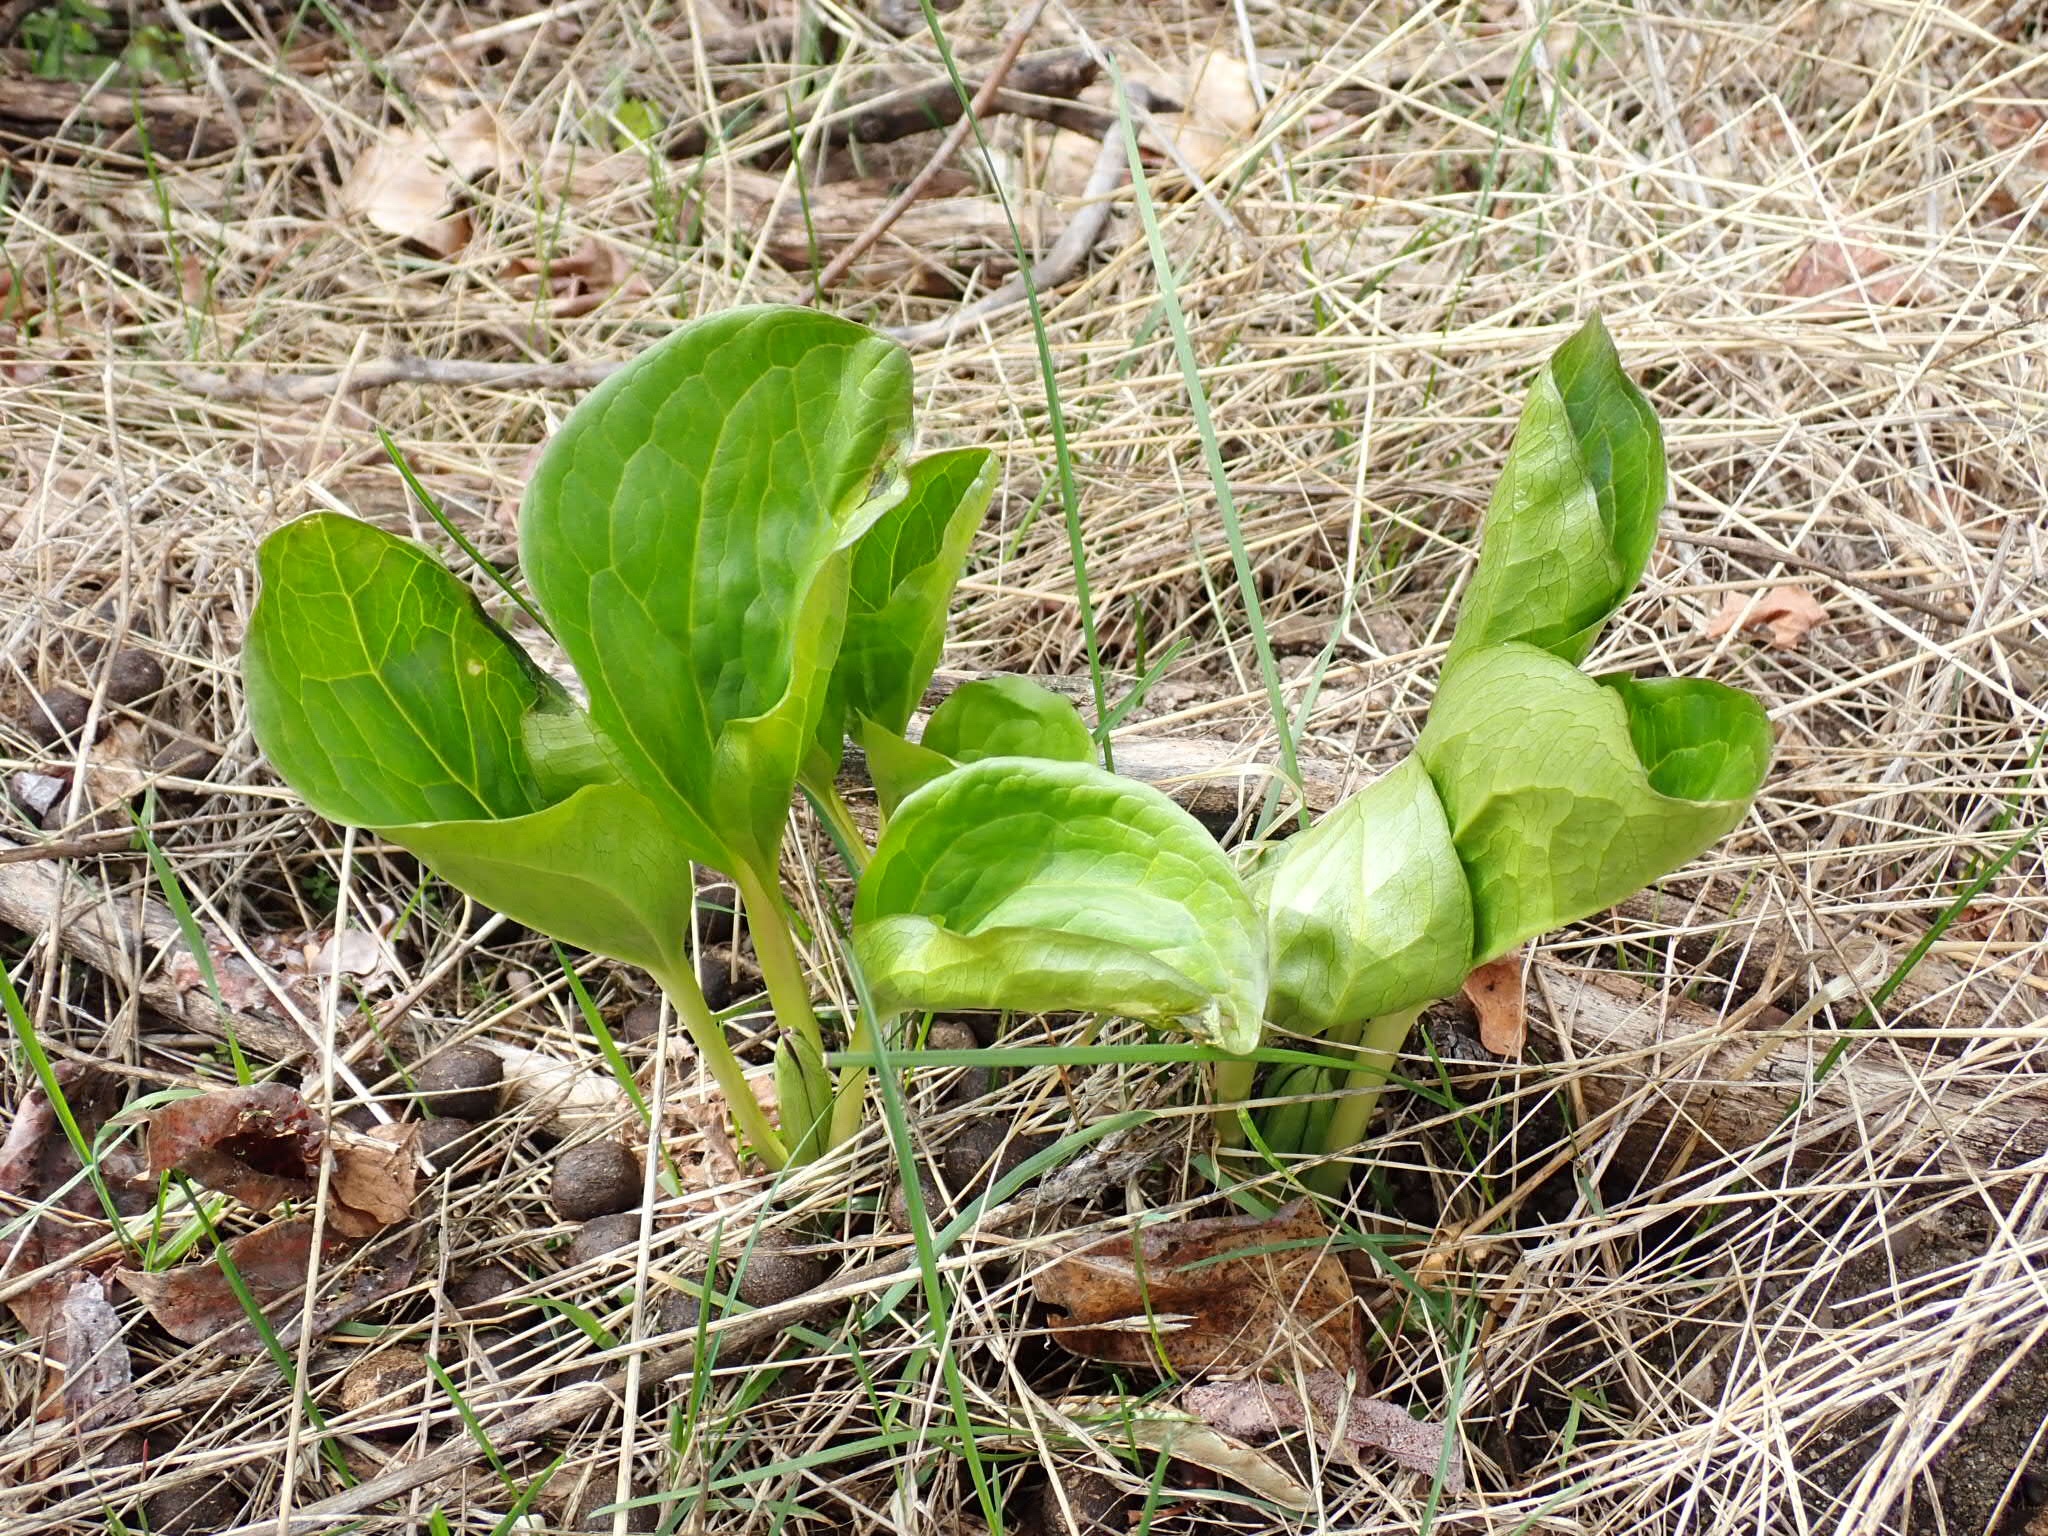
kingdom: Plantae
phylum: Tracheophyta
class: Liliopsida
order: Liliales
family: Melanthiaceae
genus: Trillium
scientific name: Trillium petiolatum
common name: Idaho trillium
